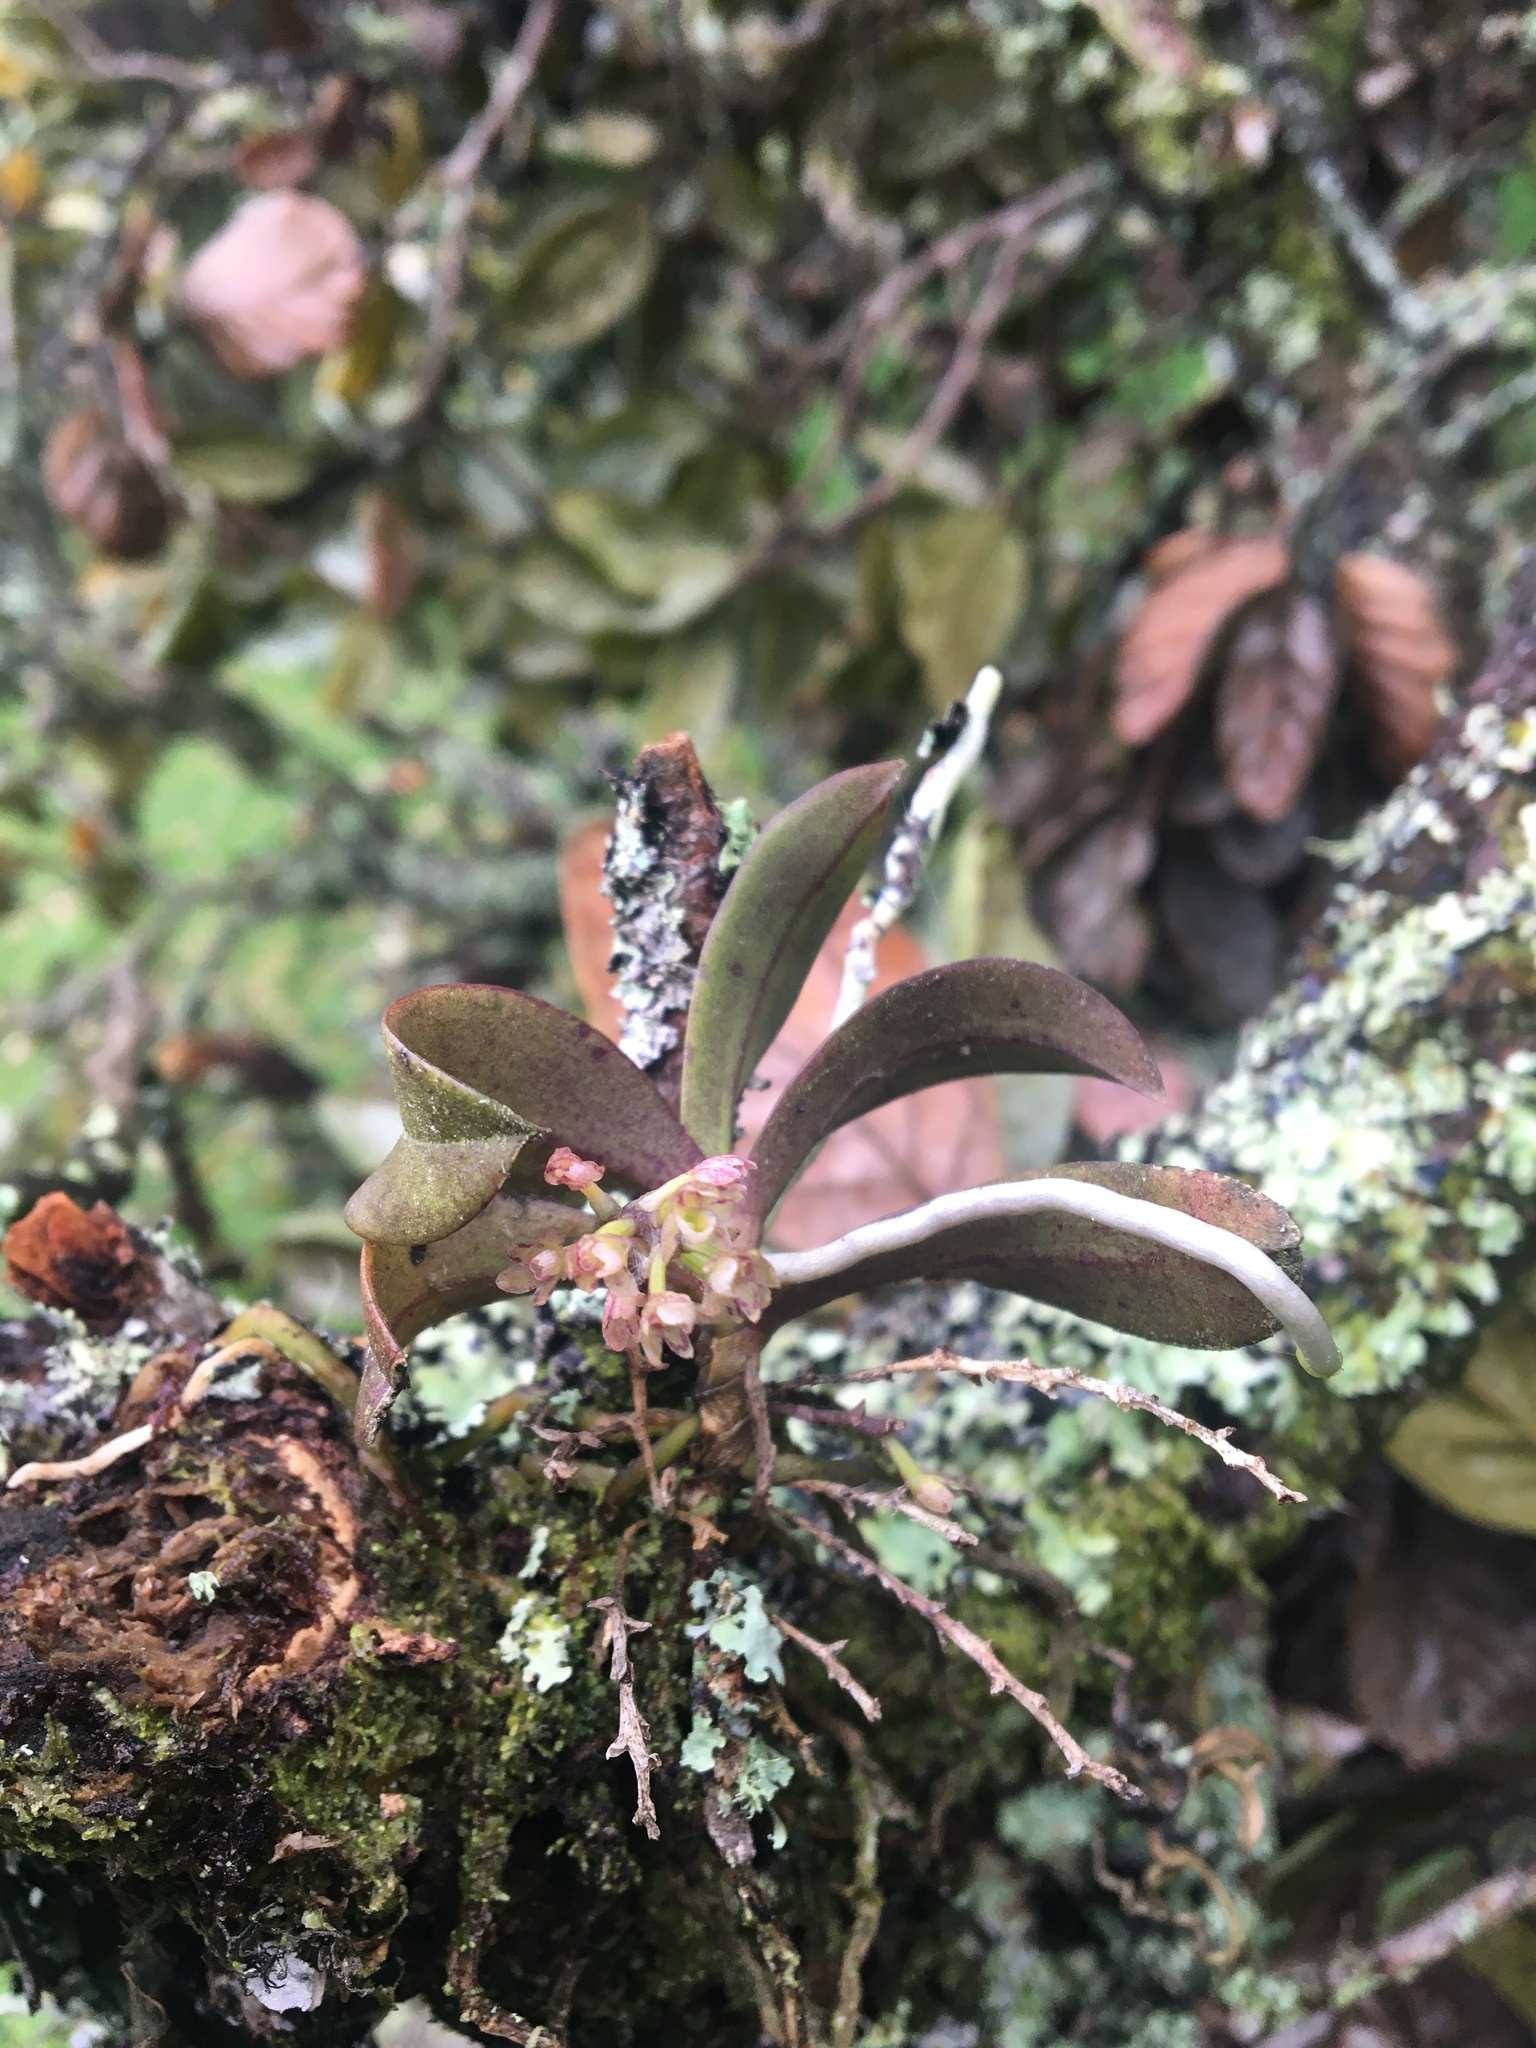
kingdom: Plantae
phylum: Tracheophyta
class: Liliopsida
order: Asparagales
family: Orchidaceae
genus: Drymoanthus
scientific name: Drymoanthus adversus
